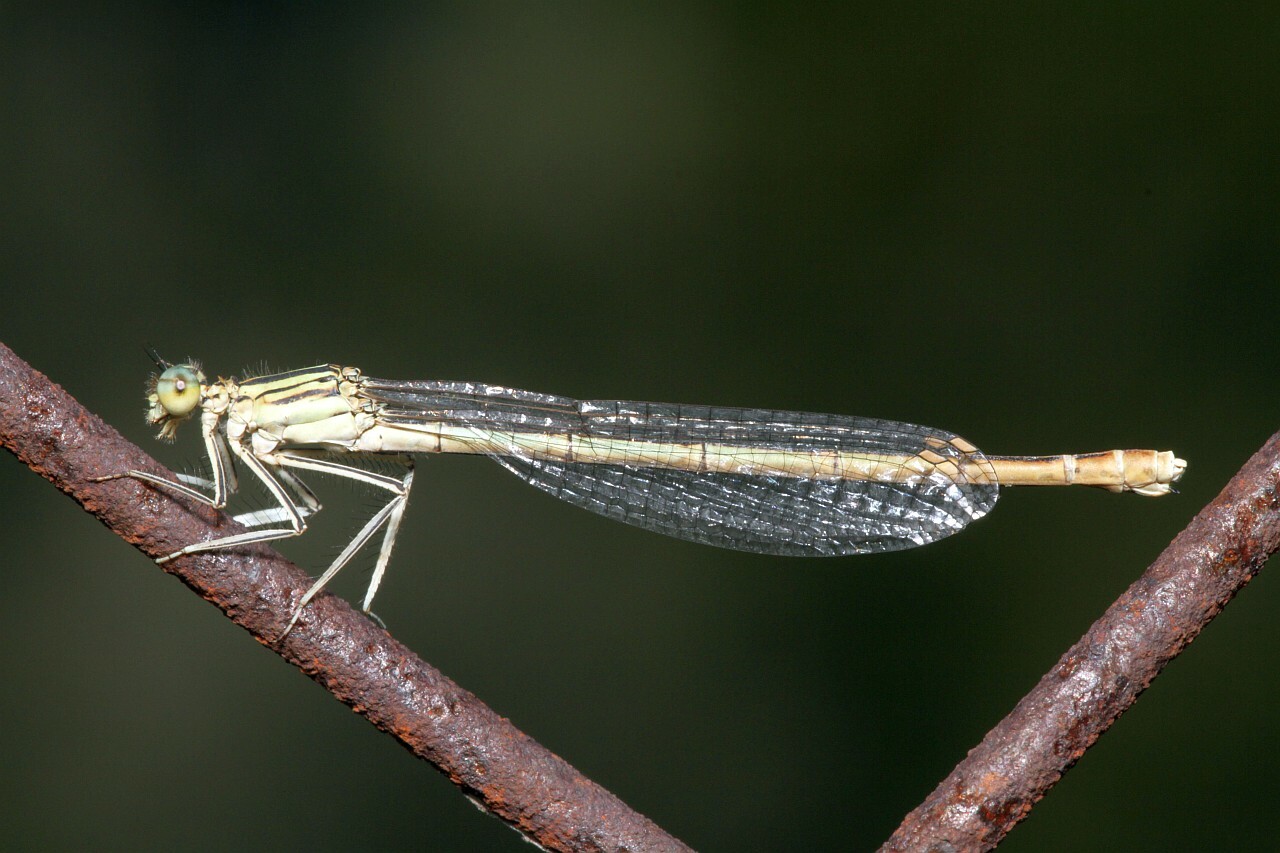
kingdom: Animalia
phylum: Arthropoda
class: Insecta
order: Odonata
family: Platycnemididae
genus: Platycnemis
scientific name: Platycnemis pennipes
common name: White-legged damselfly
